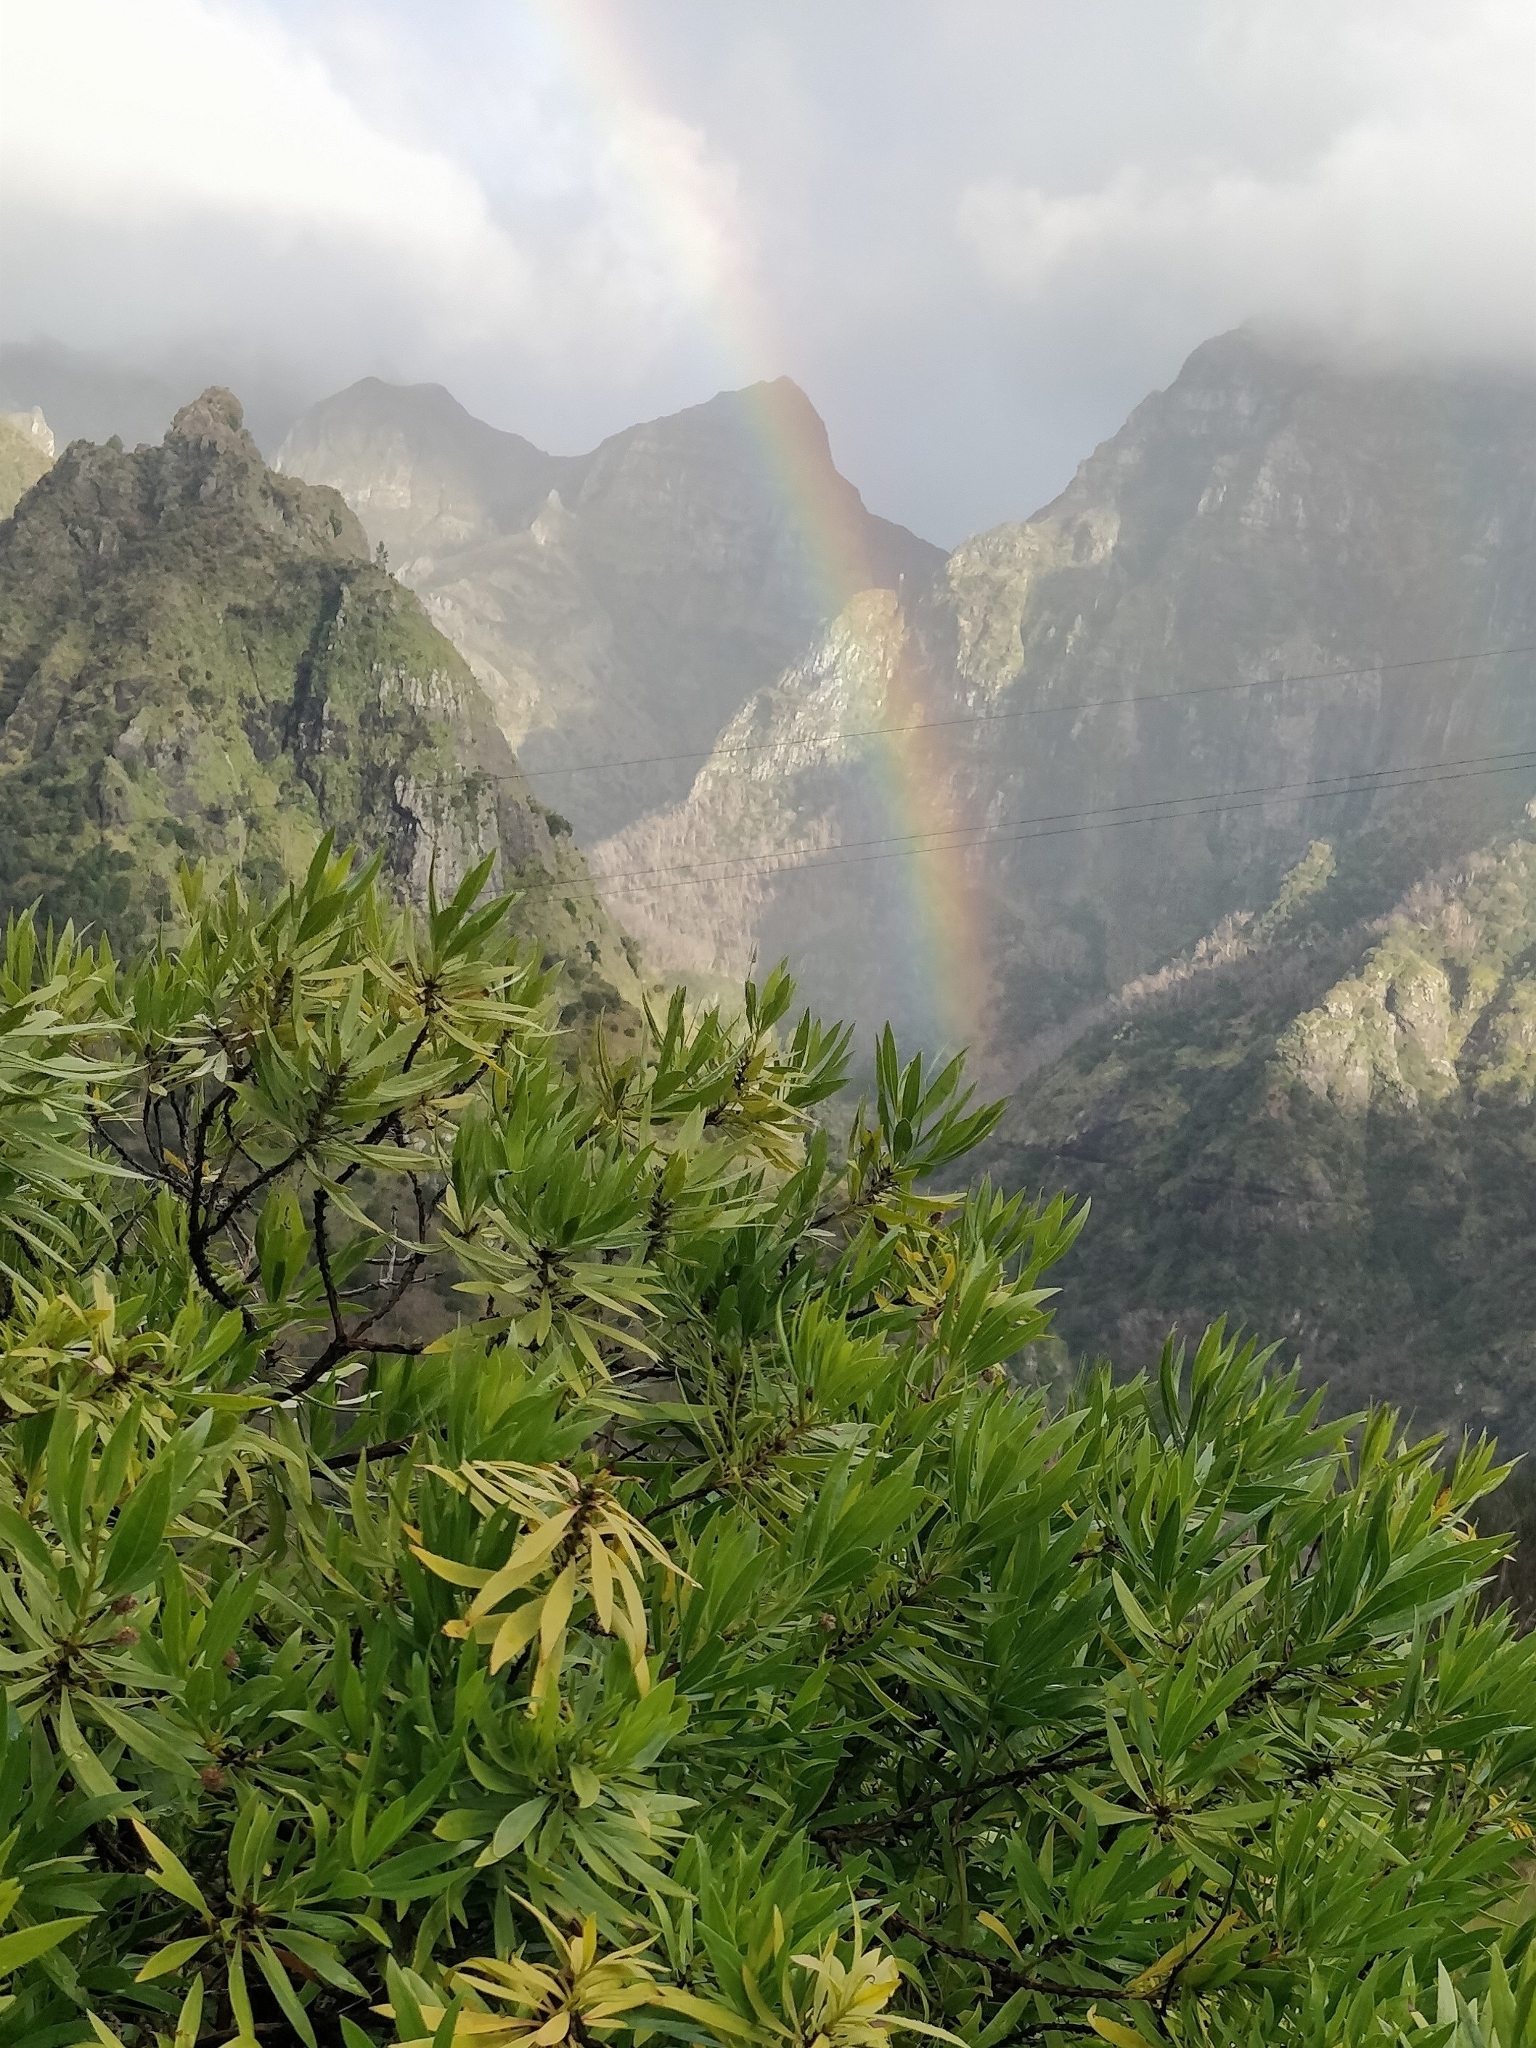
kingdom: Plantae
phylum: Tracheophyta
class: Magnoliopsida
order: Lamiales
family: Plantaginaceae
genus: Globularia
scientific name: Globularia salicina
